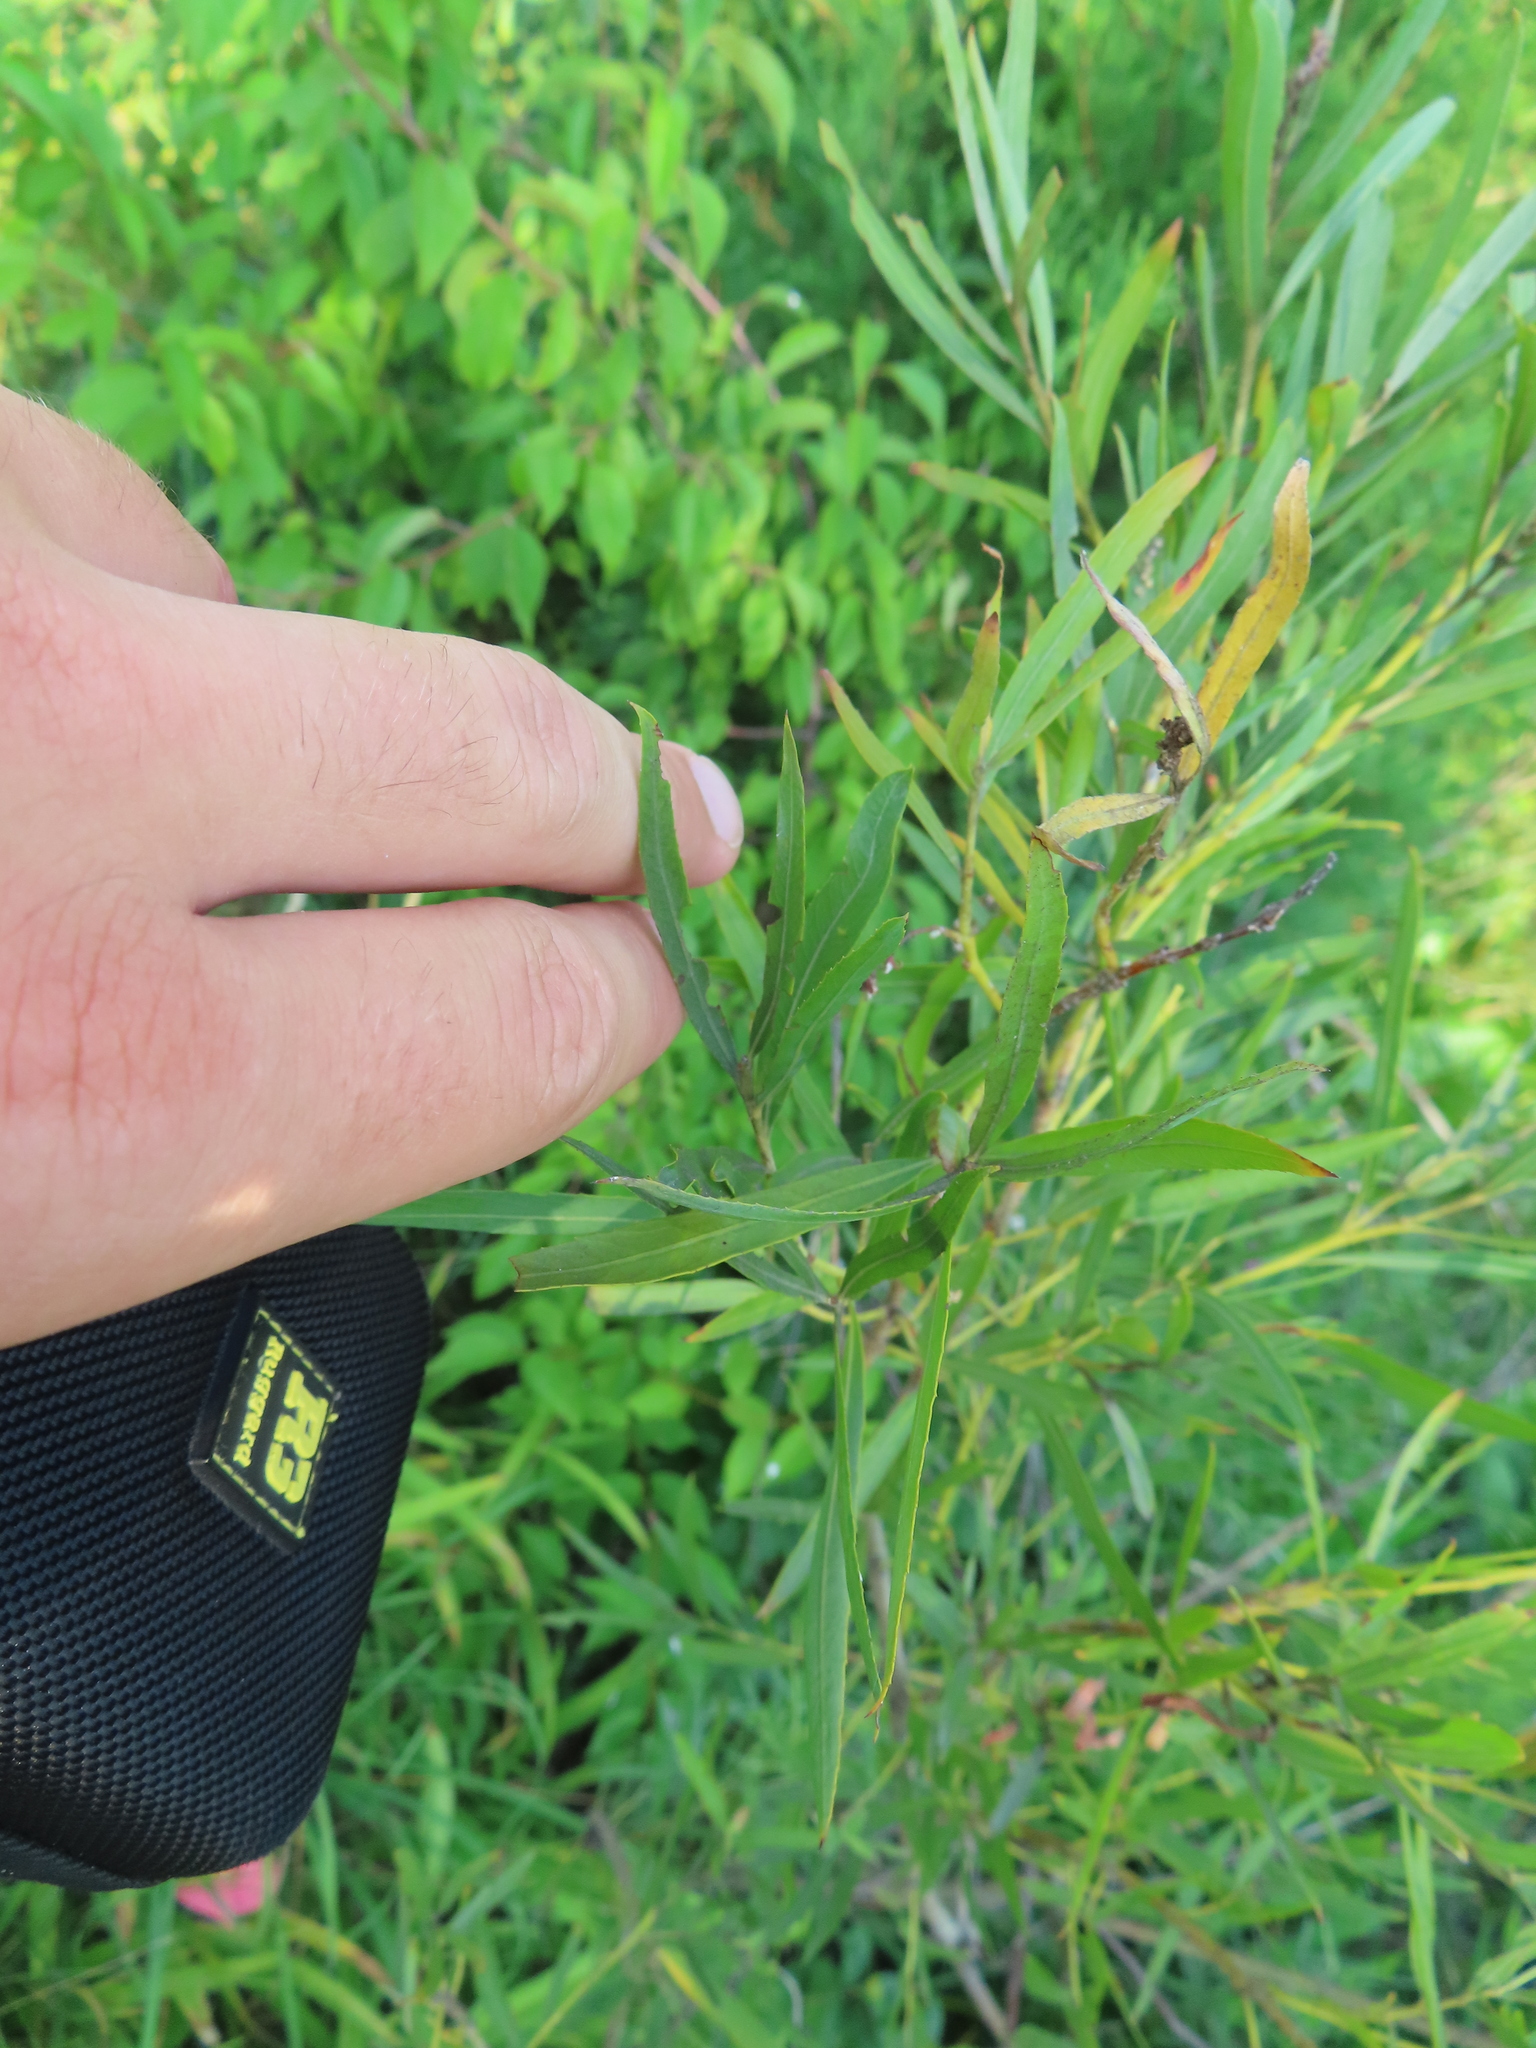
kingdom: Plantae
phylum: Tracheophyta
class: Magnoliopsida
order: Malpighiales
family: Salicaceae
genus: Salix
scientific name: Salix interior
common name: Sandbar willow
